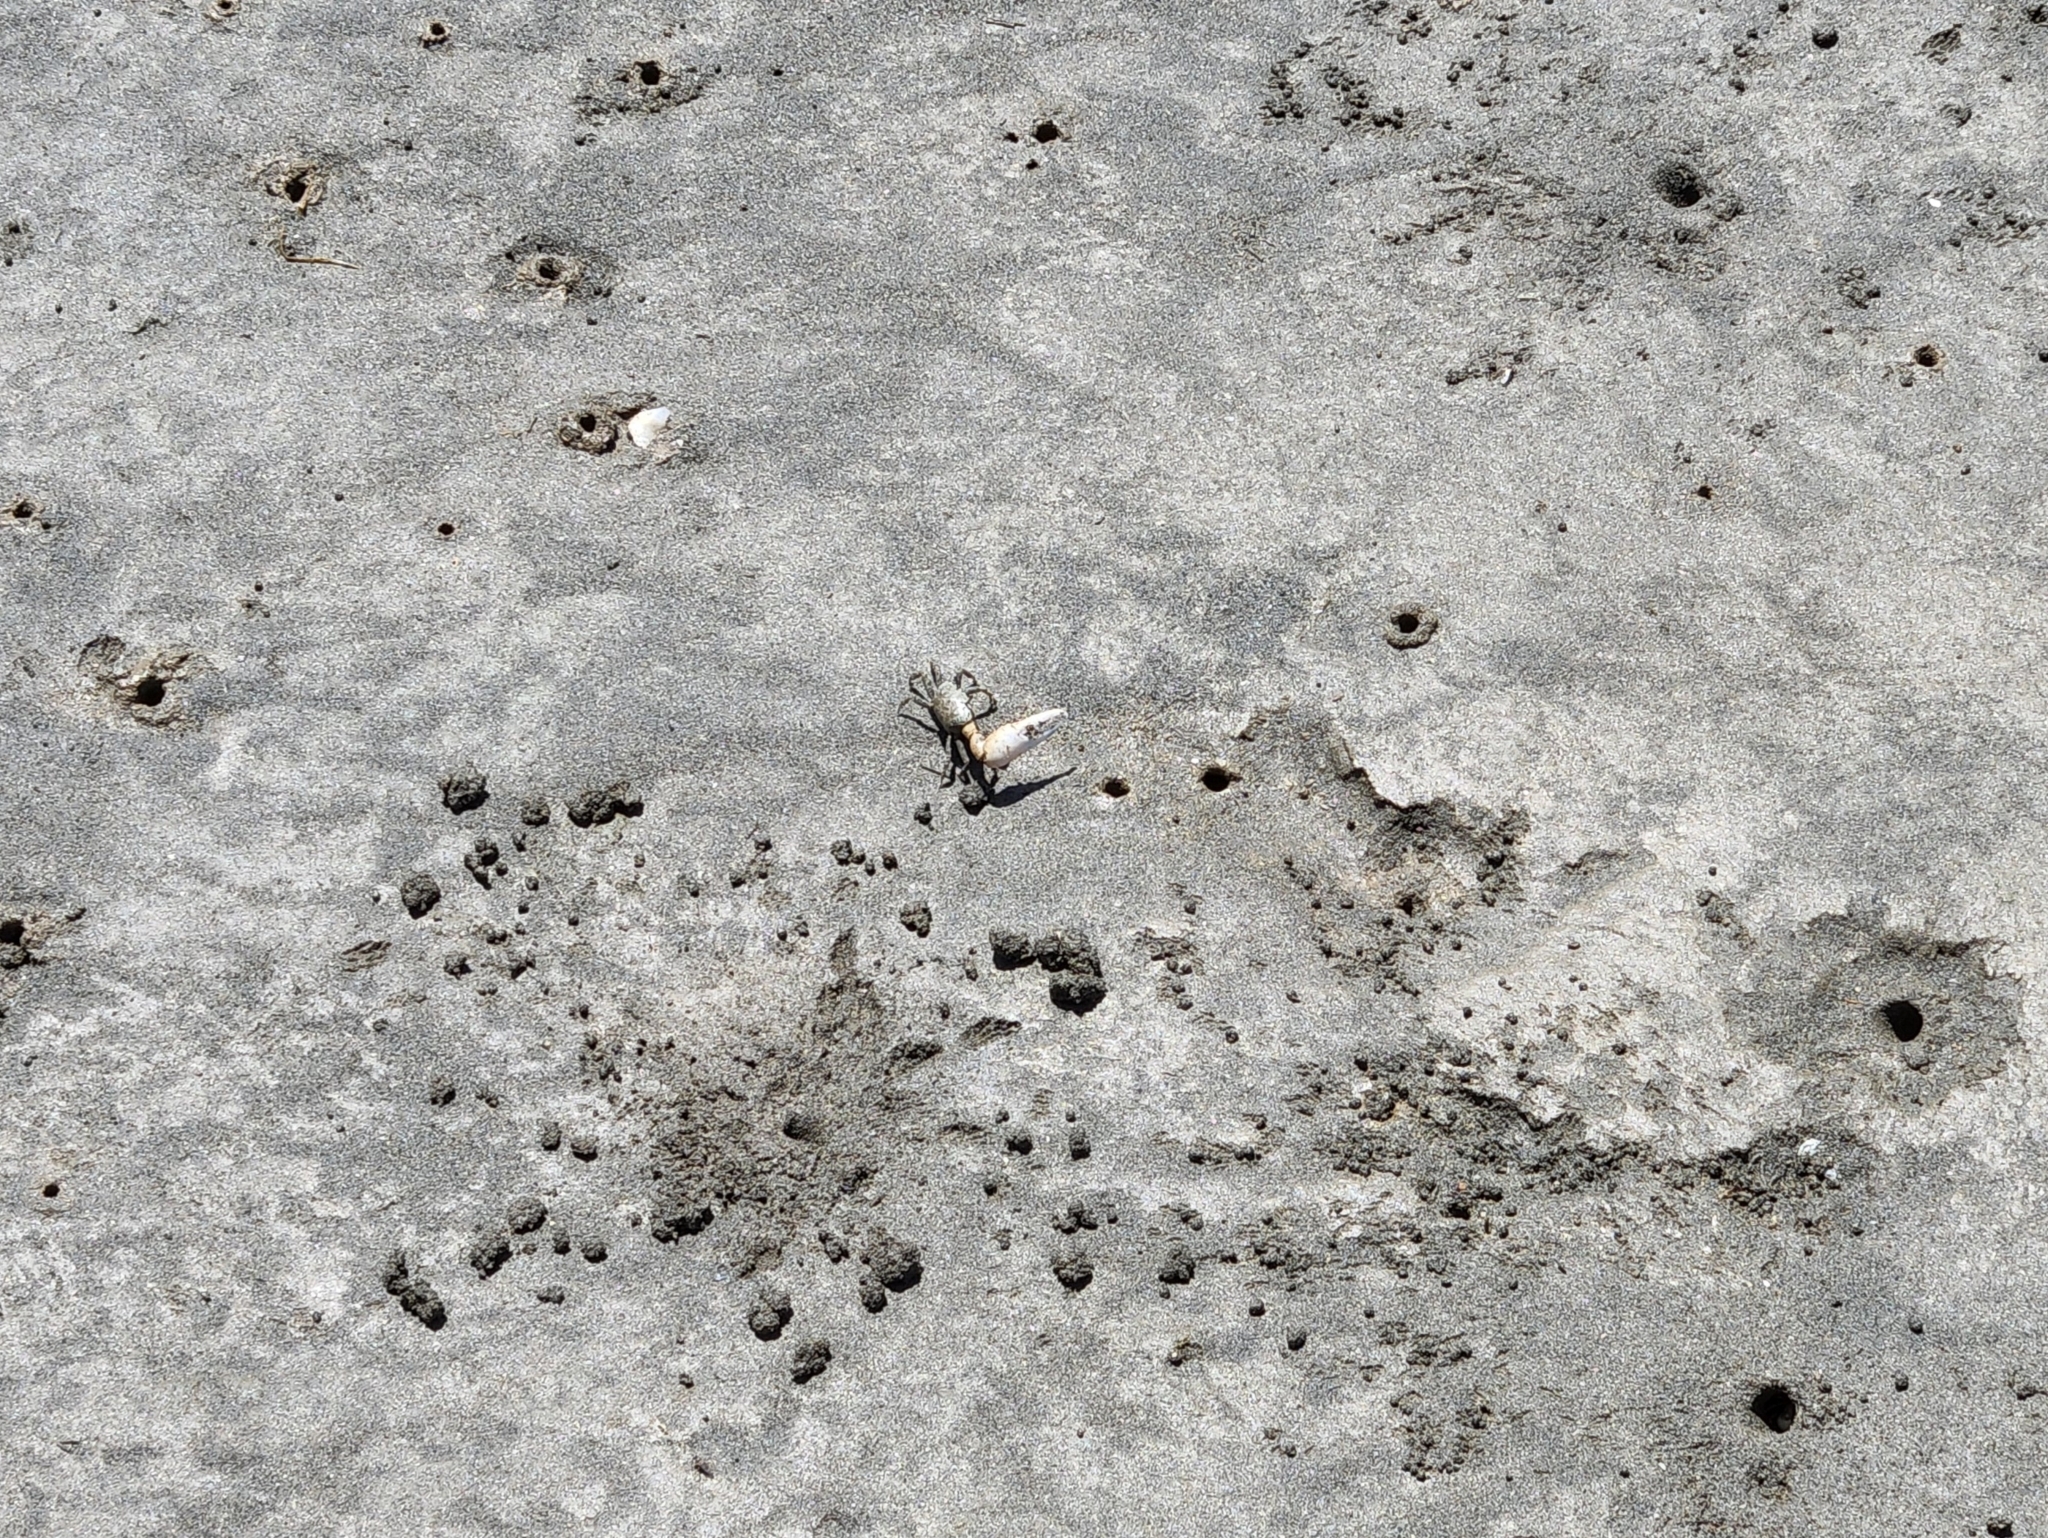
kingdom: Animalia
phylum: Arthropoda
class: Malacostraca
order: Decapoda
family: Ocypodidae
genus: Leptuca
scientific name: Leptuca crenulata
